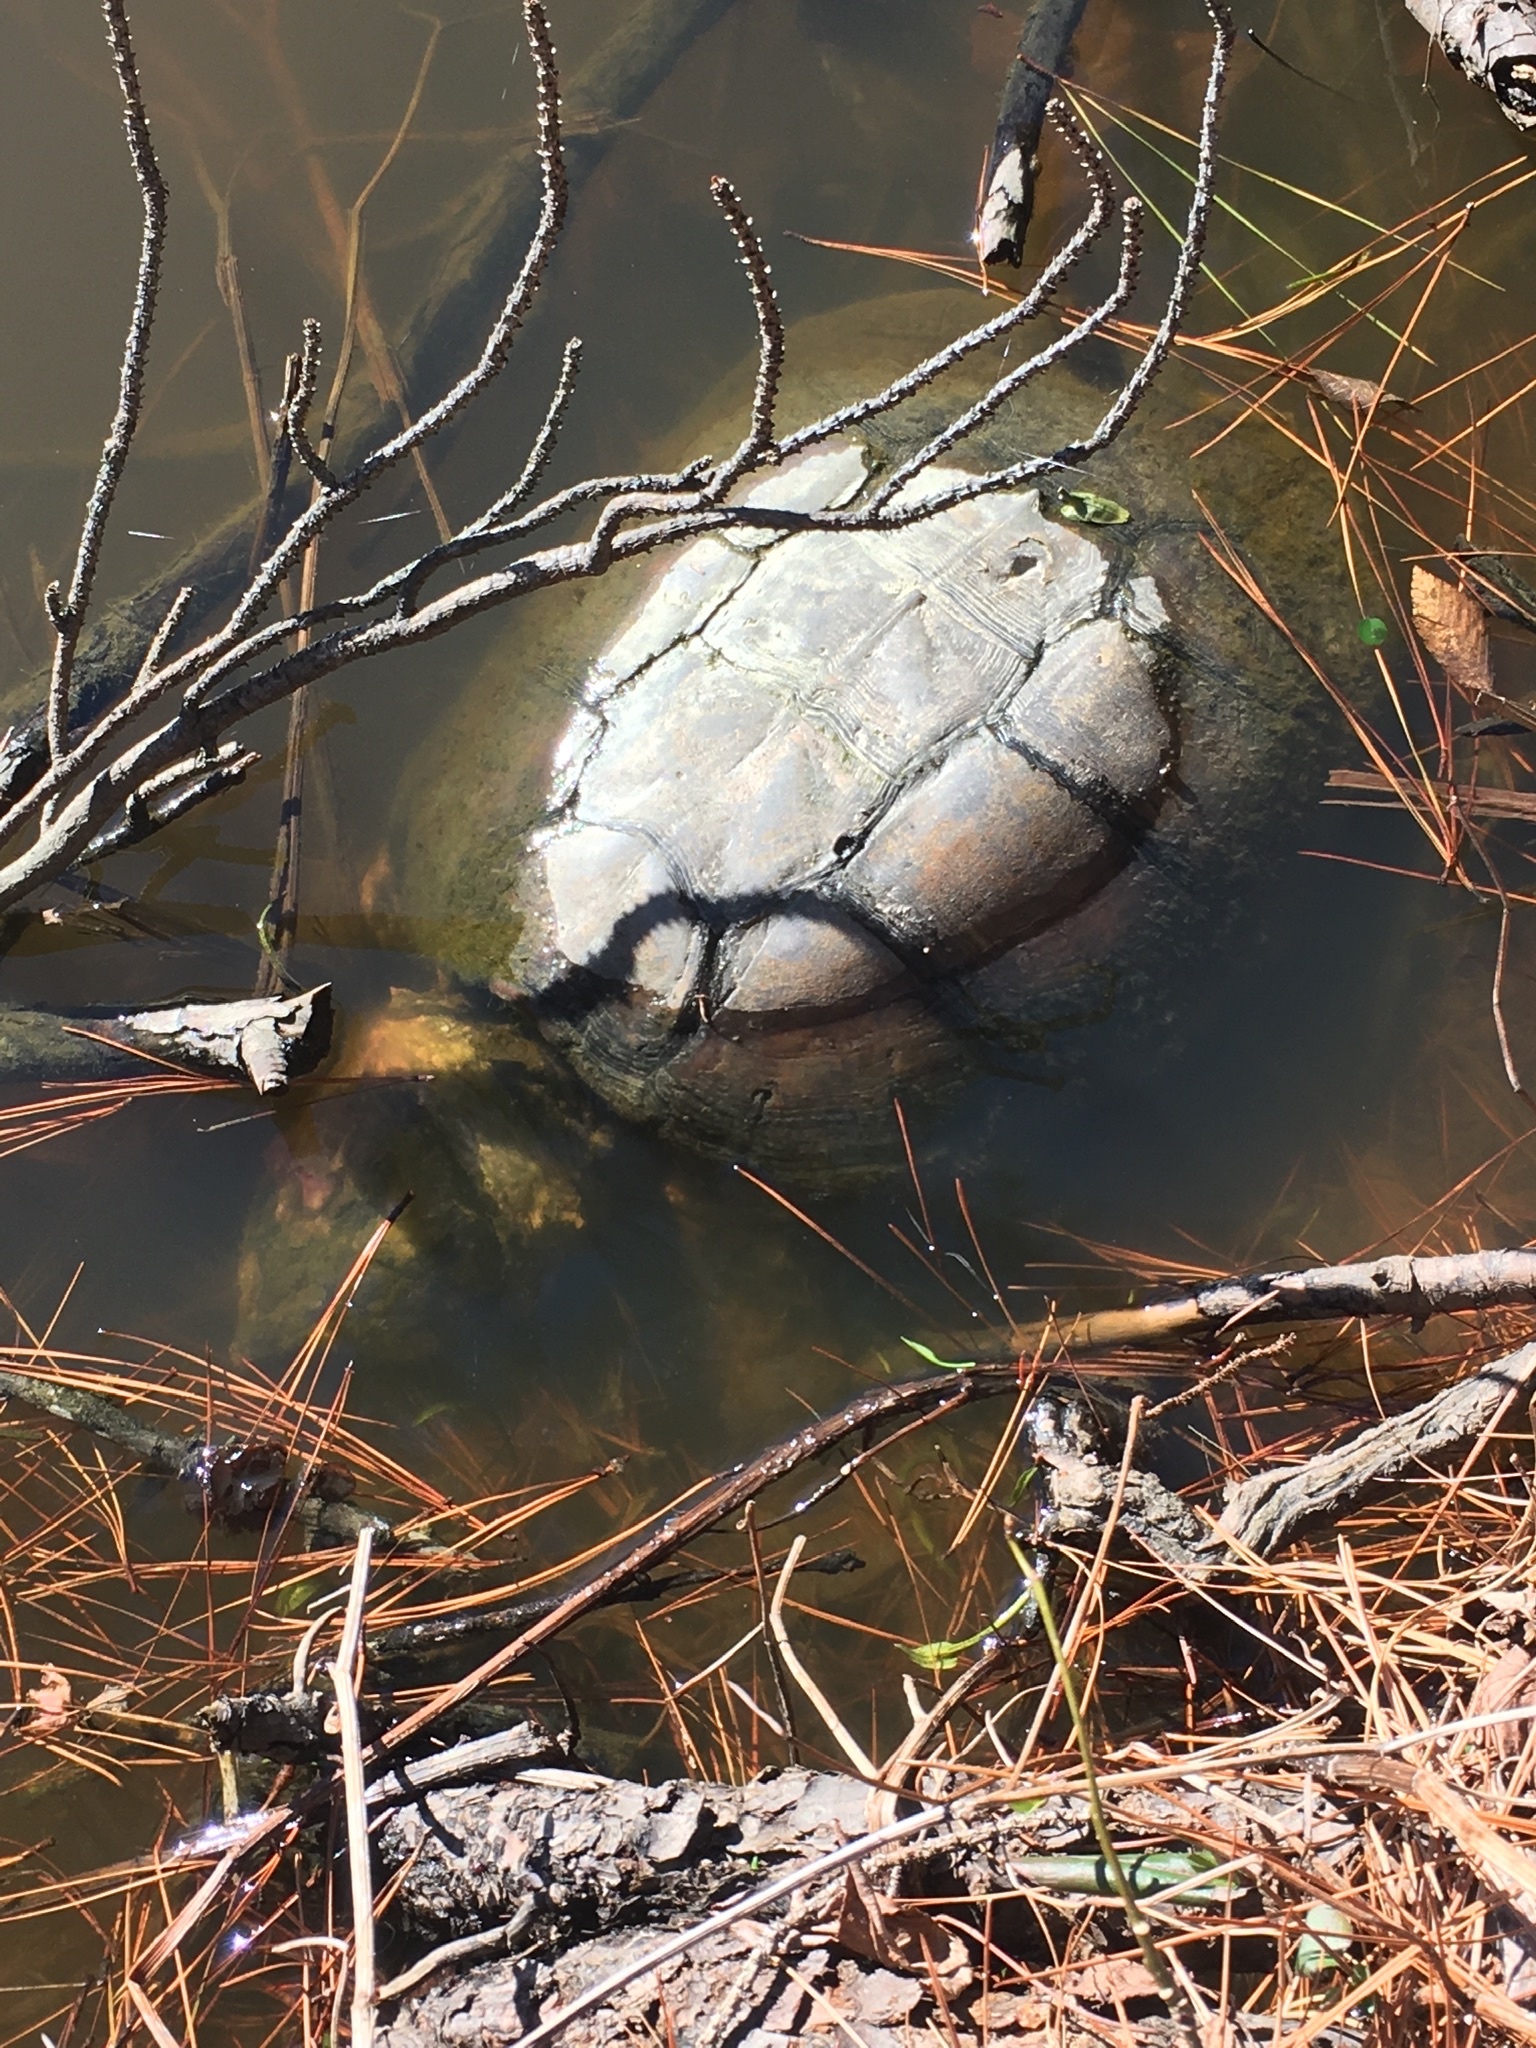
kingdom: Animalia
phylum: Chordata
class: Testudines
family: Chelydridae
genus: Chelydra
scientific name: Chelydra serpentina
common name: Common snapping turtle
